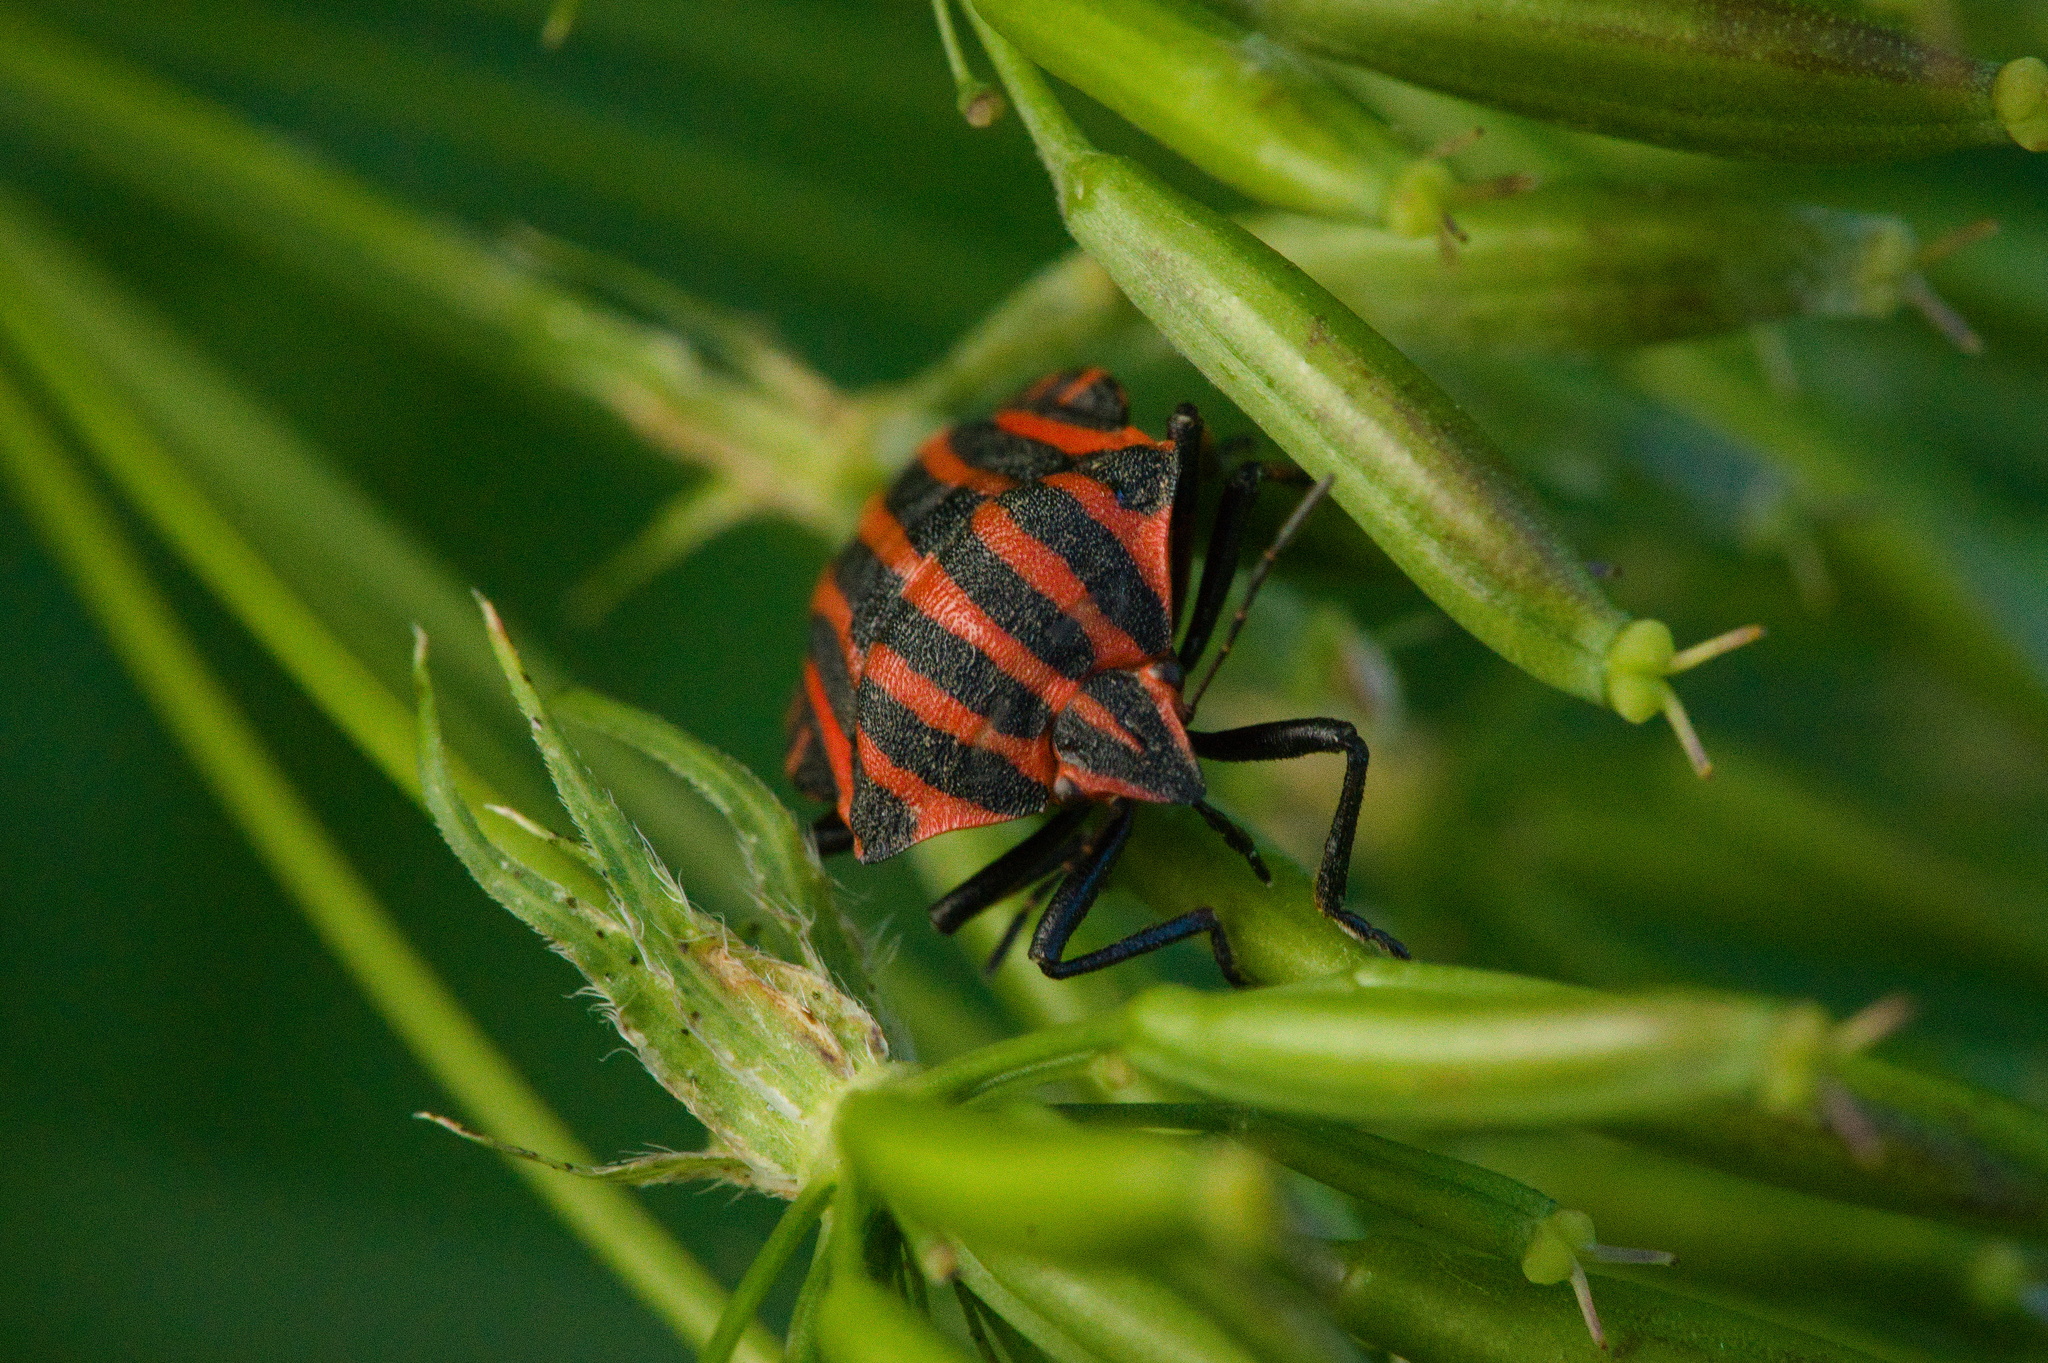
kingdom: Animalia
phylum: Arthropoda
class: Insecta
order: Hemiptera
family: Pentatomidae
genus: Graphosoma
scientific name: Graphosoma italicum
